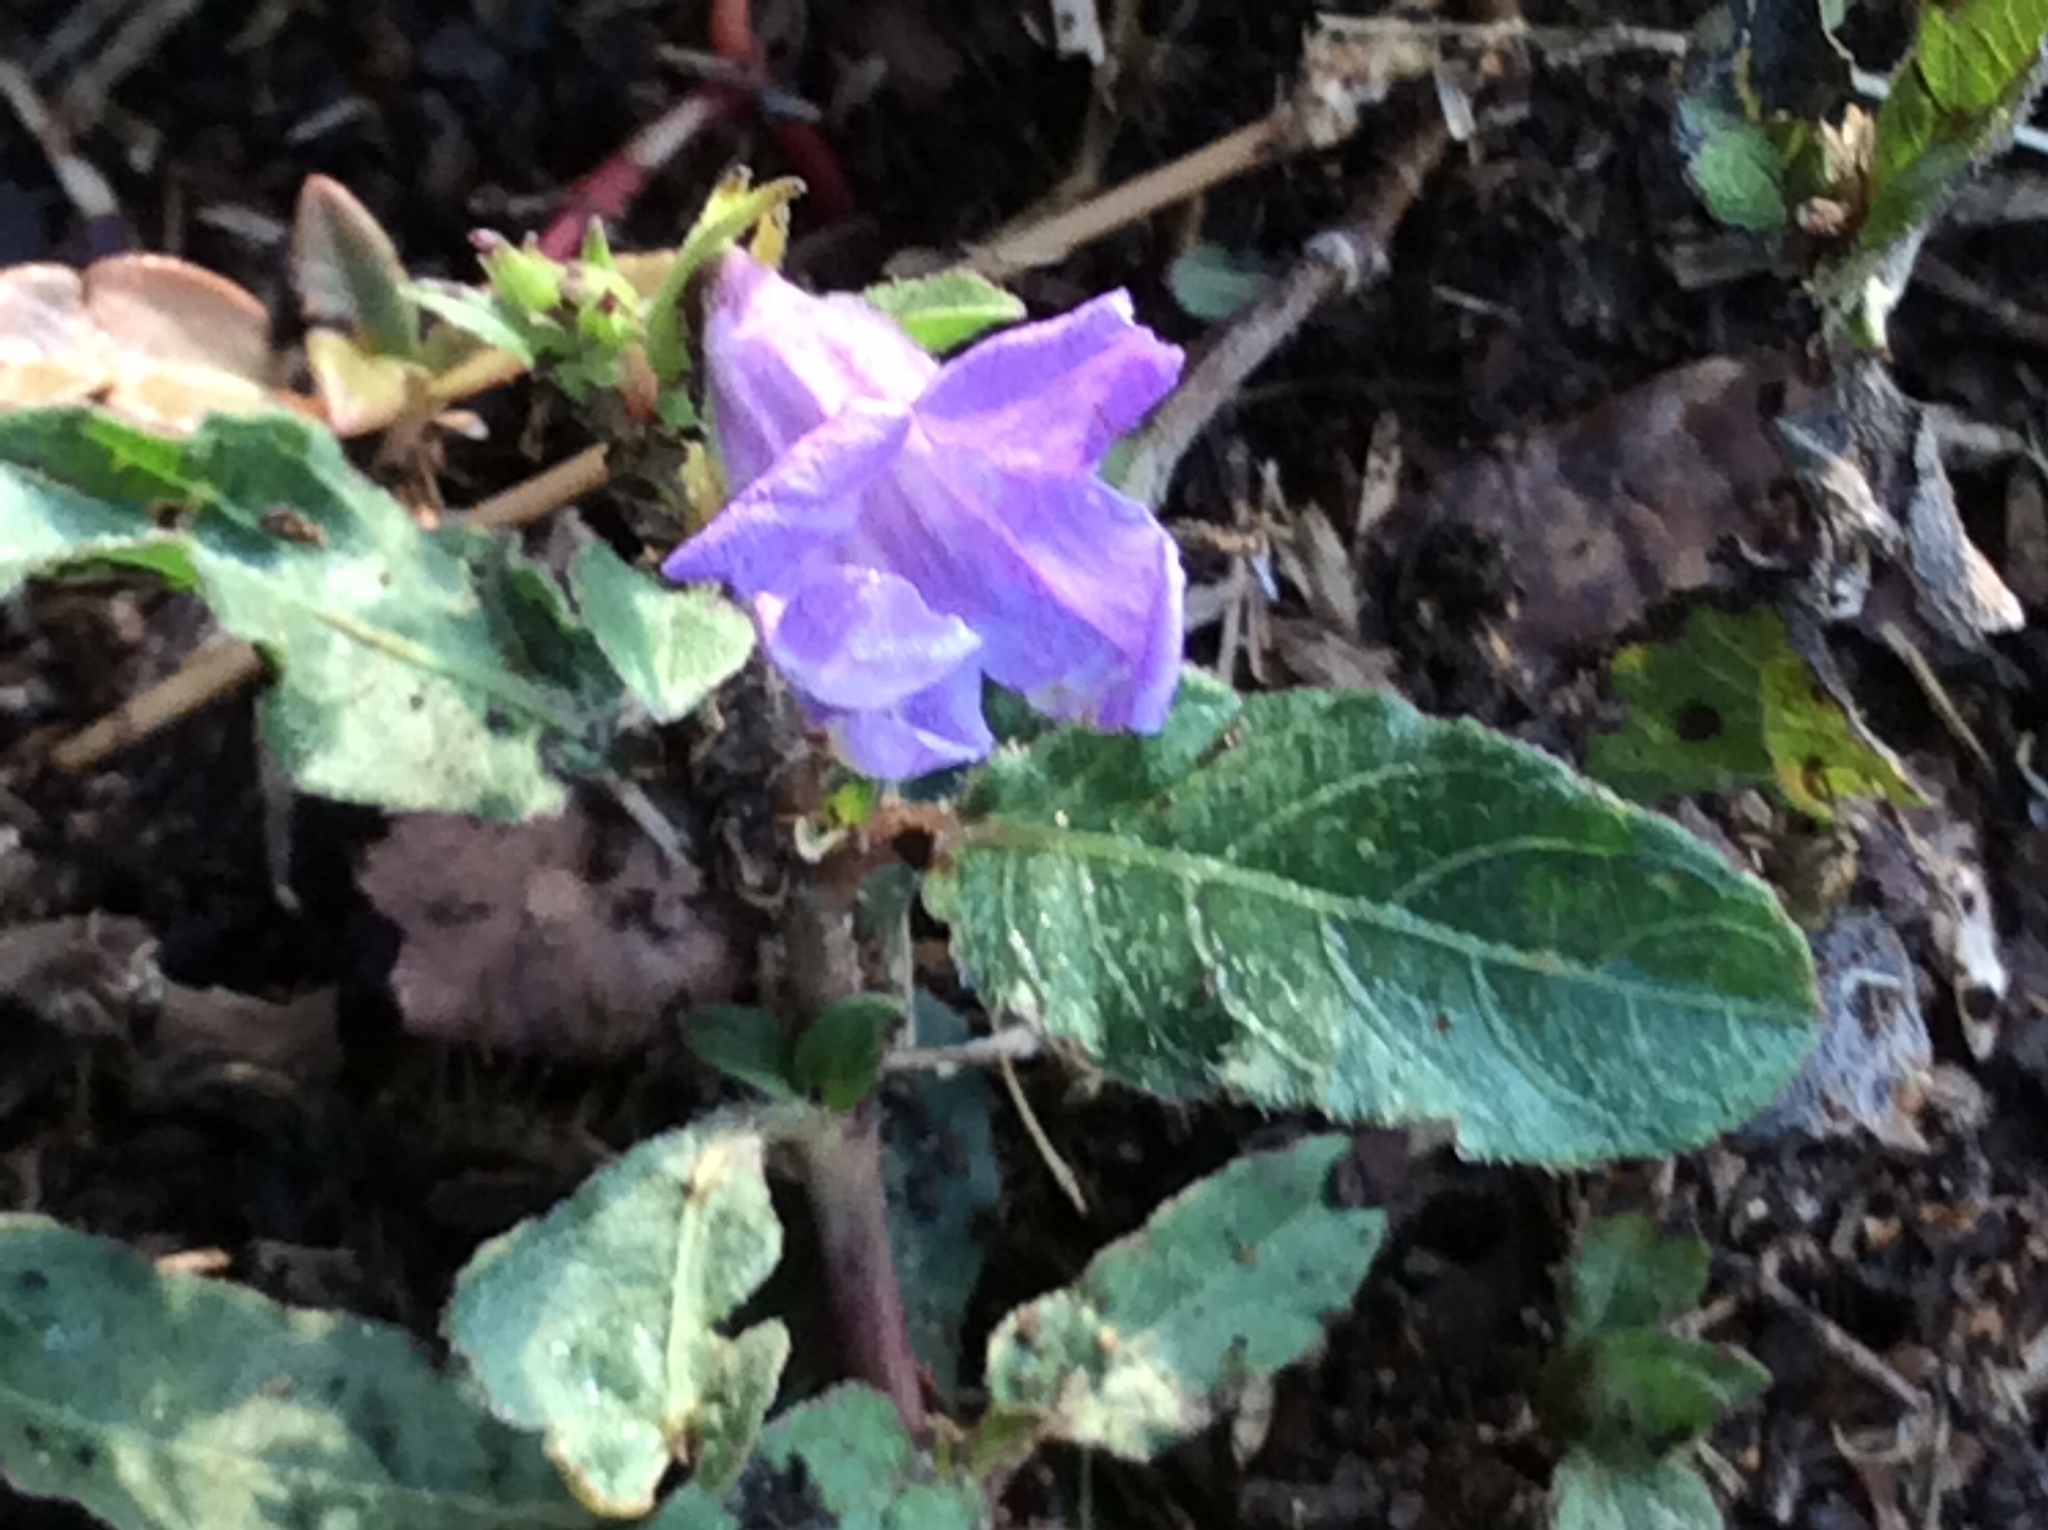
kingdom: Plantae
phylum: Tracheophyta
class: Magnoliopsida
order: Lamiales
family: Acanthaceae
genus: Ruellia
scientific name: Ruellia ciliatiflora
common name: Hairyflower wild petunia
